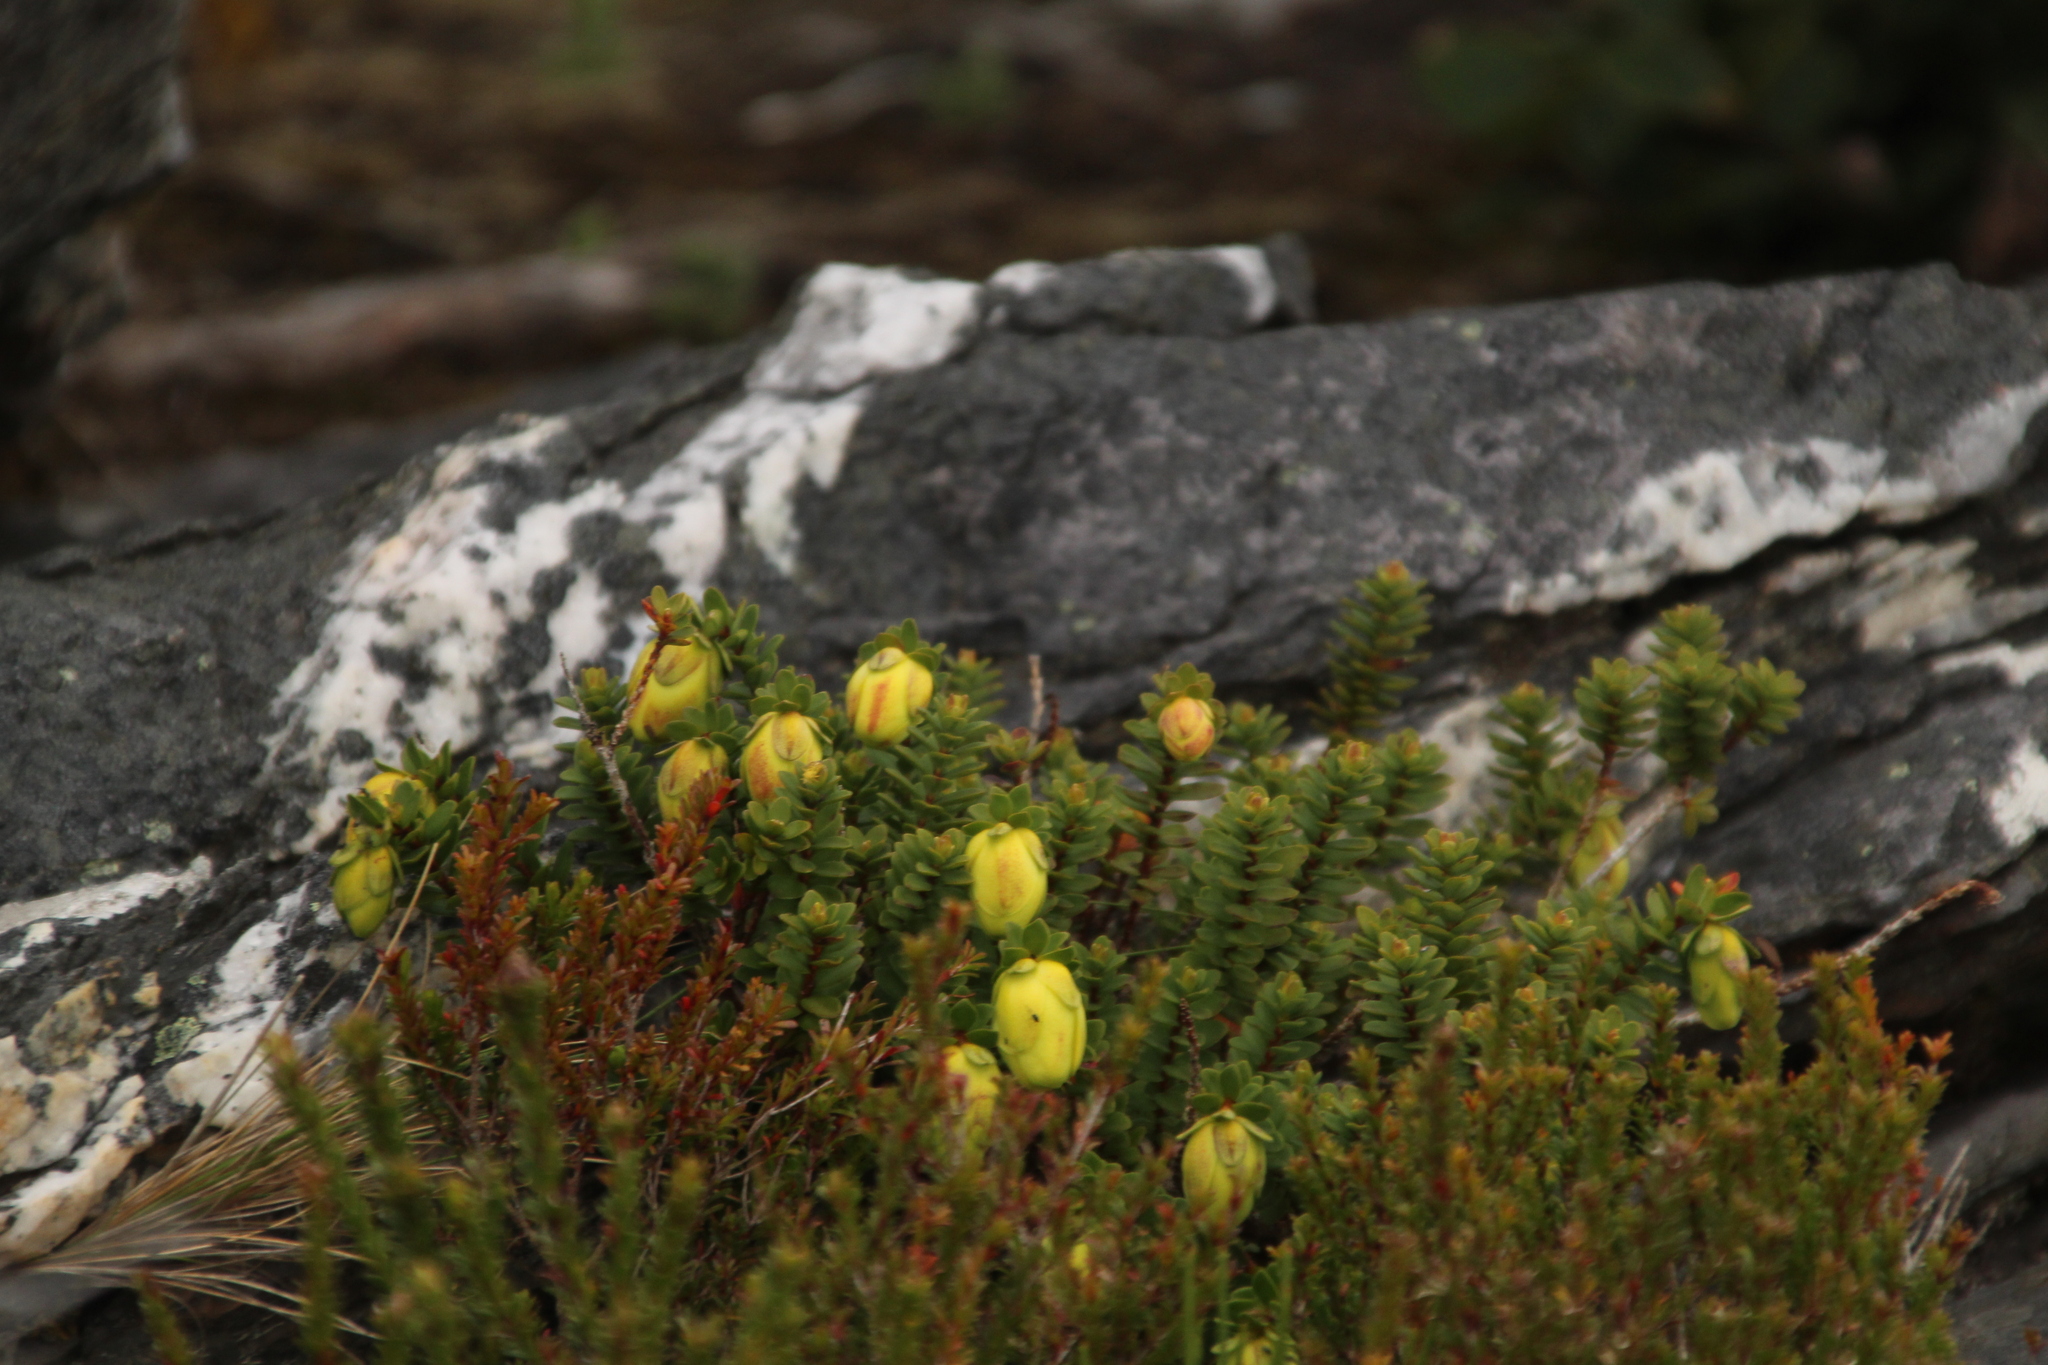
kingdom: Plantae
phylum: Tracheophyta
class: Magnoliopsida
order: Myrtales
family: Myrtaceae
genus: Darwinia
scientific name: Darwinia collina
